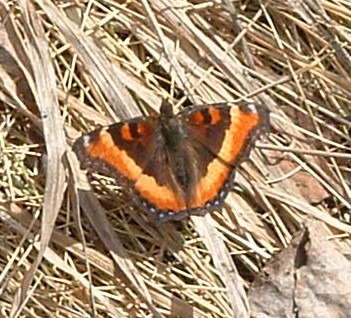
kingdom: Animalia
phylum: Arthropoda
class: Insecta
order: Lepidoptera
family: Nymphalidae
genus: Aglais
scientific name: Aglais milberti
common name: Milbert's tortoiseshell
